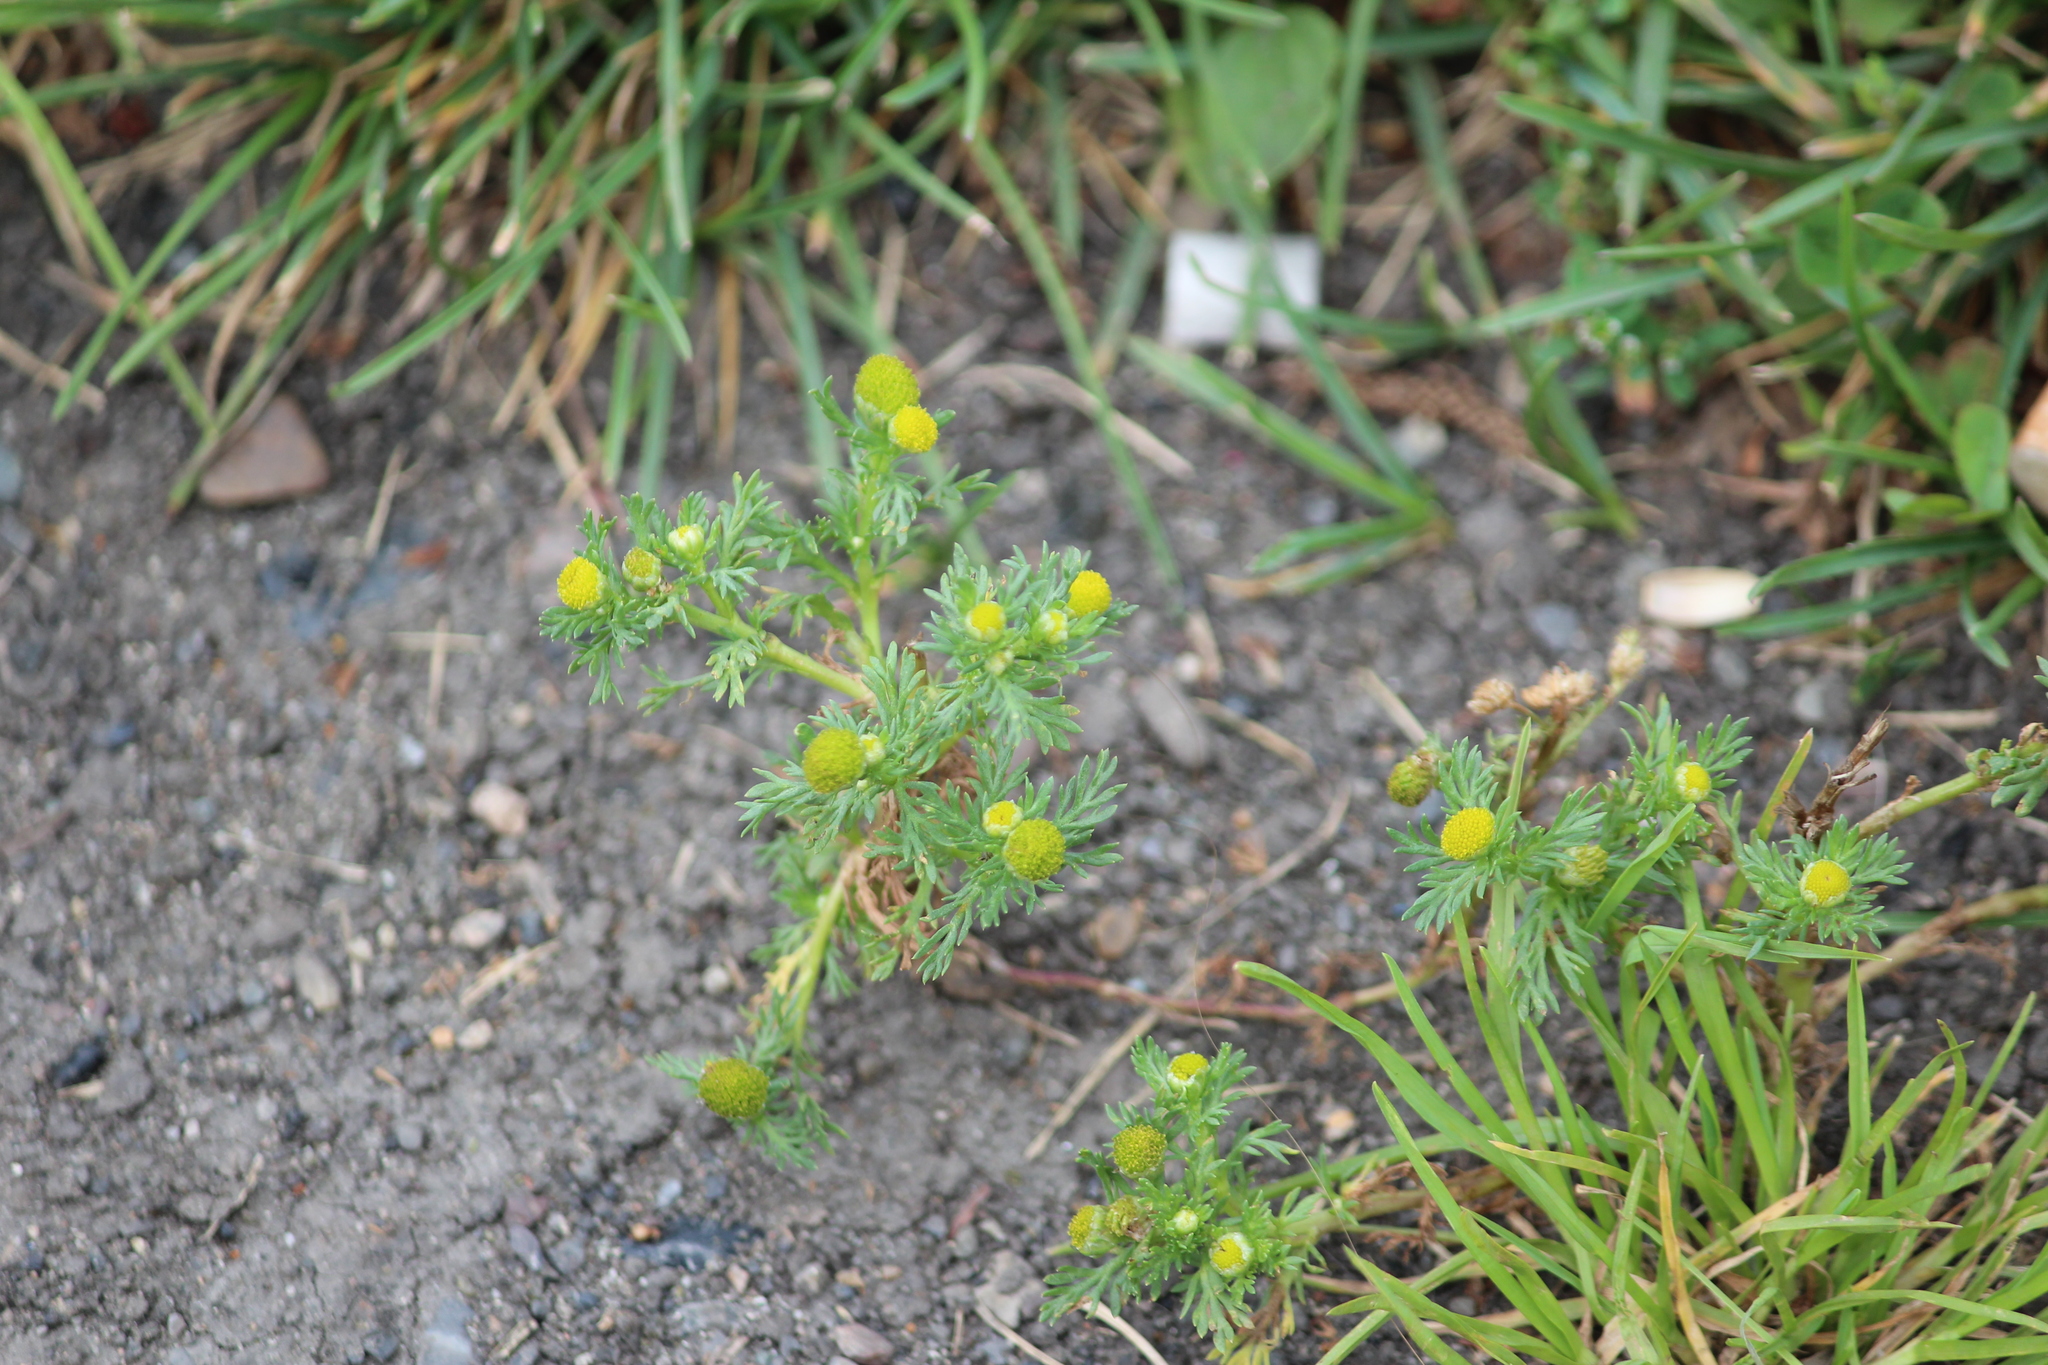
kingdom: Plantae
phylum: Tracheophyta
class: Magnoliopsida
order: Asterales
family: Asteraceae
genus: Matricaria
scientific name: Matricaria discoidea
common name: Disc mayweed
